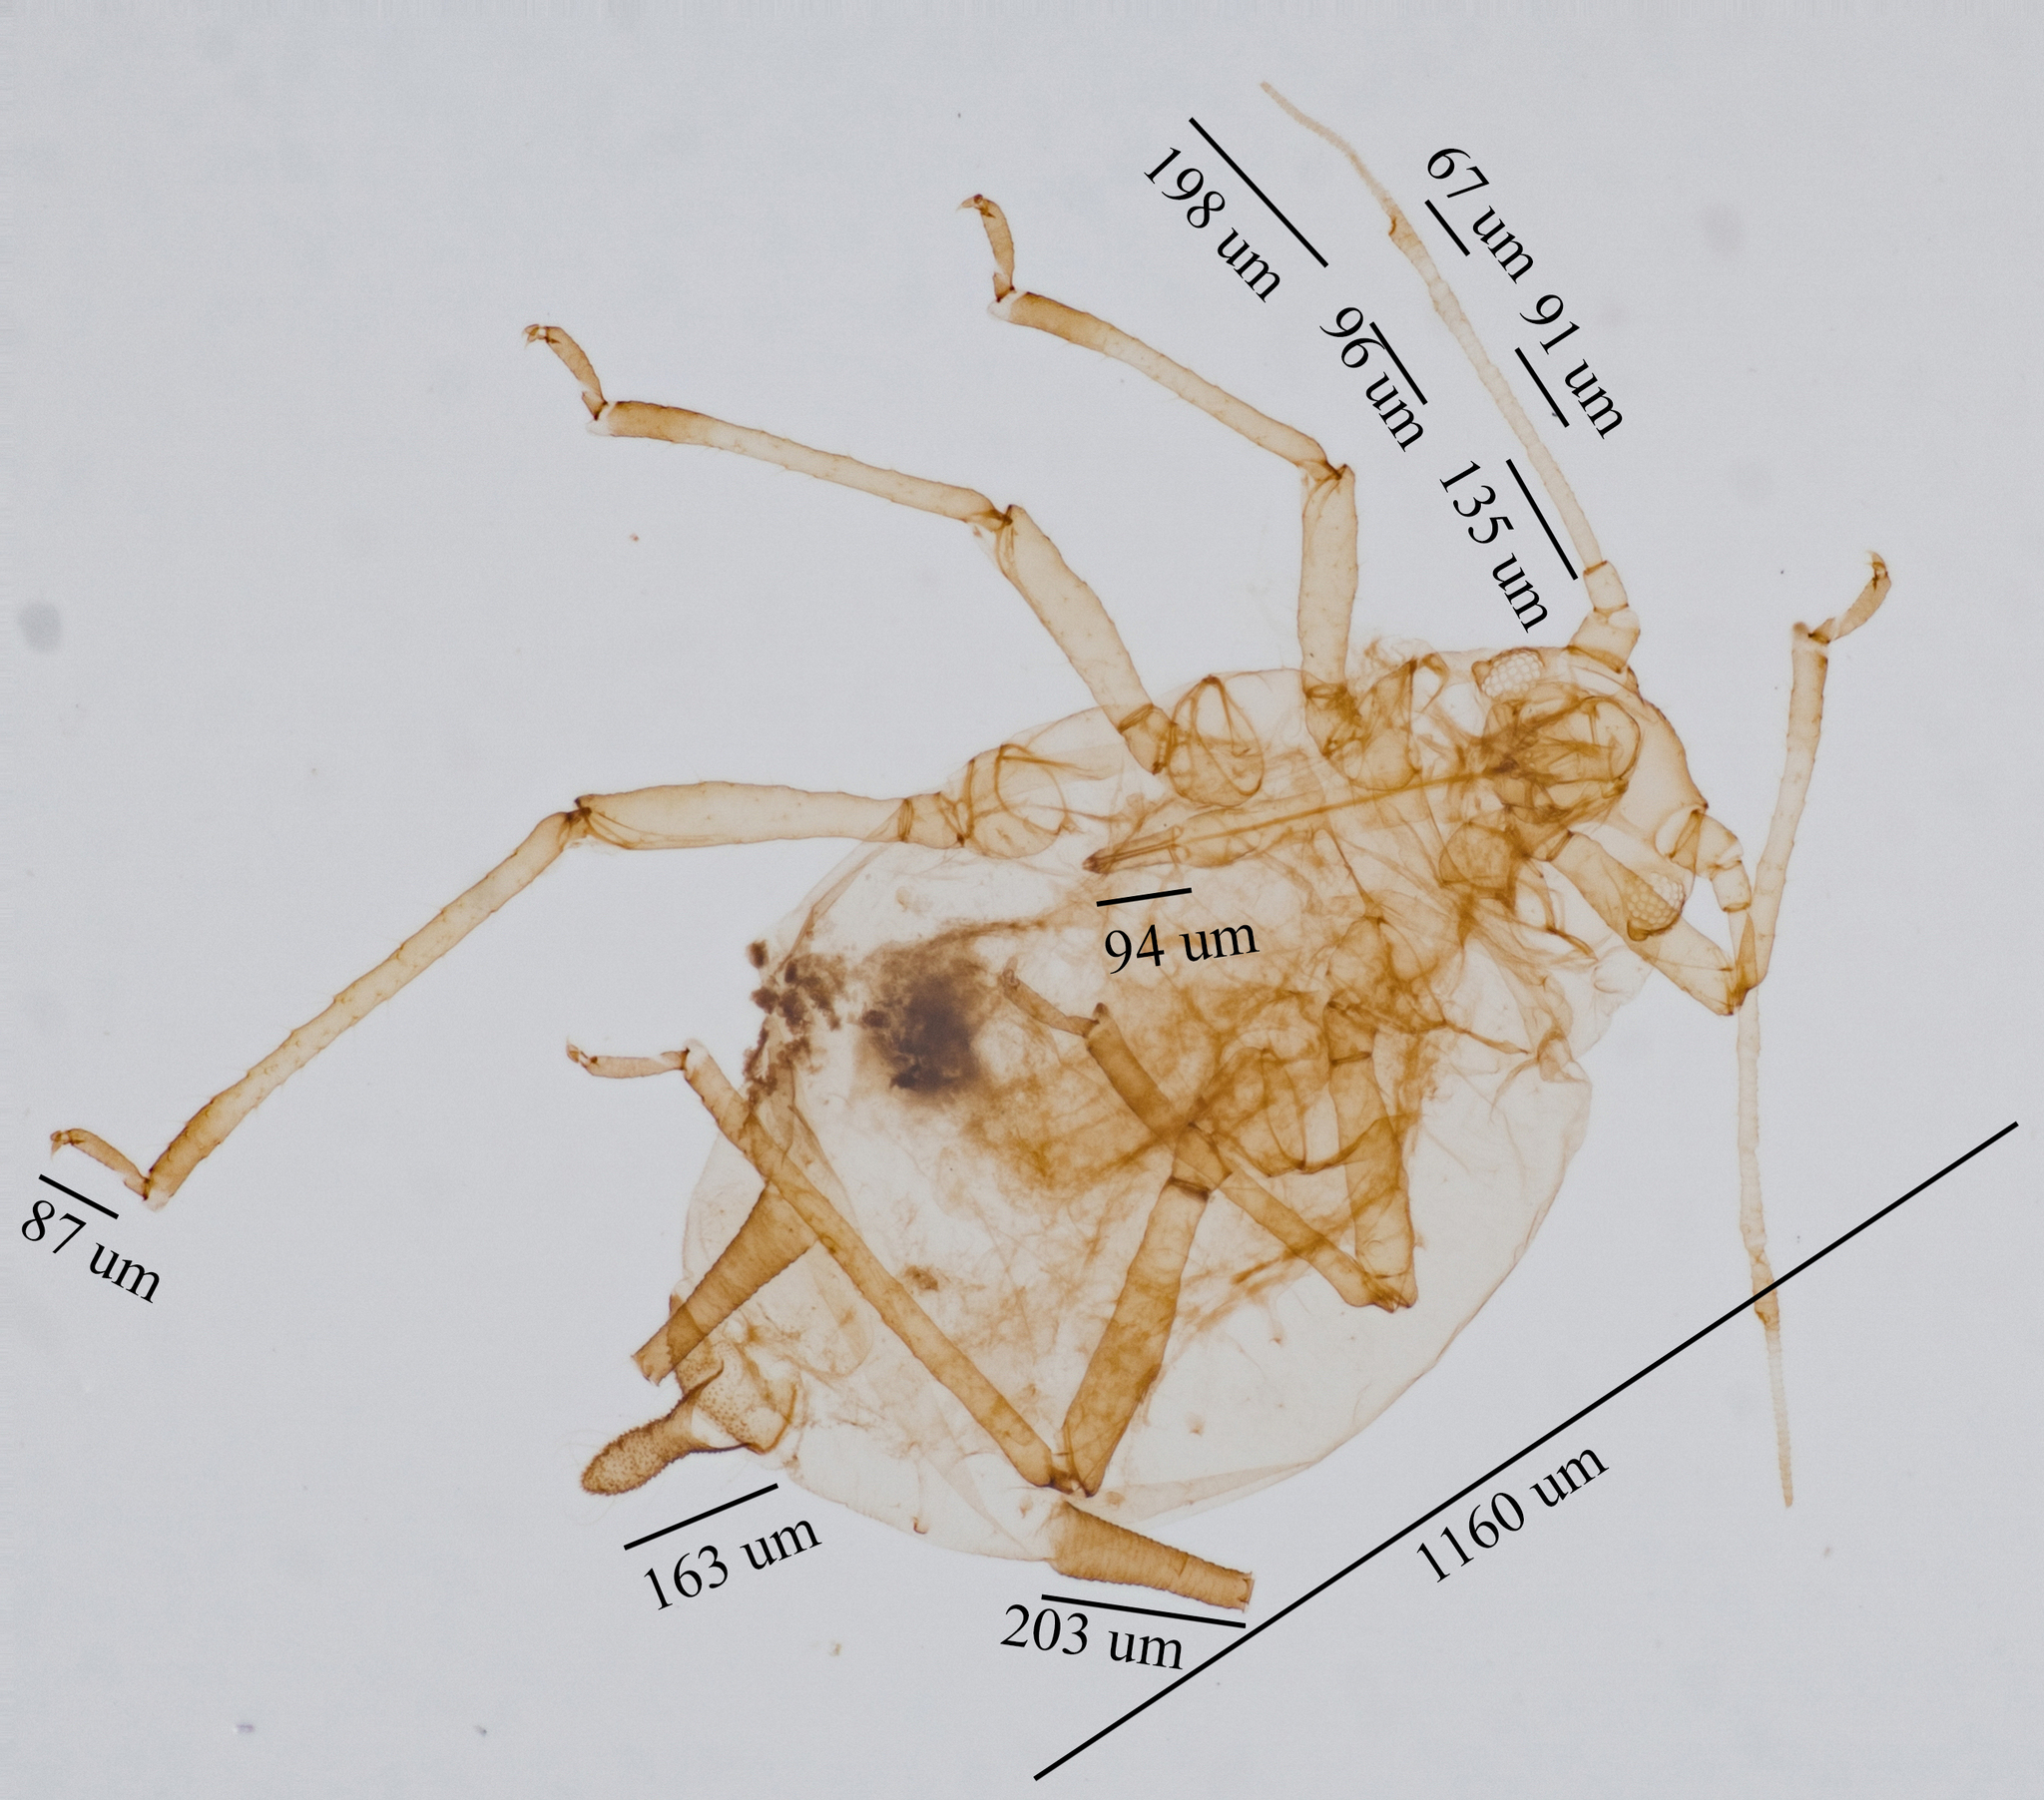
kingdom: Animalia
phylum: Arthropoda
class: Insecta
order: Hemiptera
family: Aphididae
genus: Aphis
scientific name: Aphis spiraecola
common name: Spirea aphid
